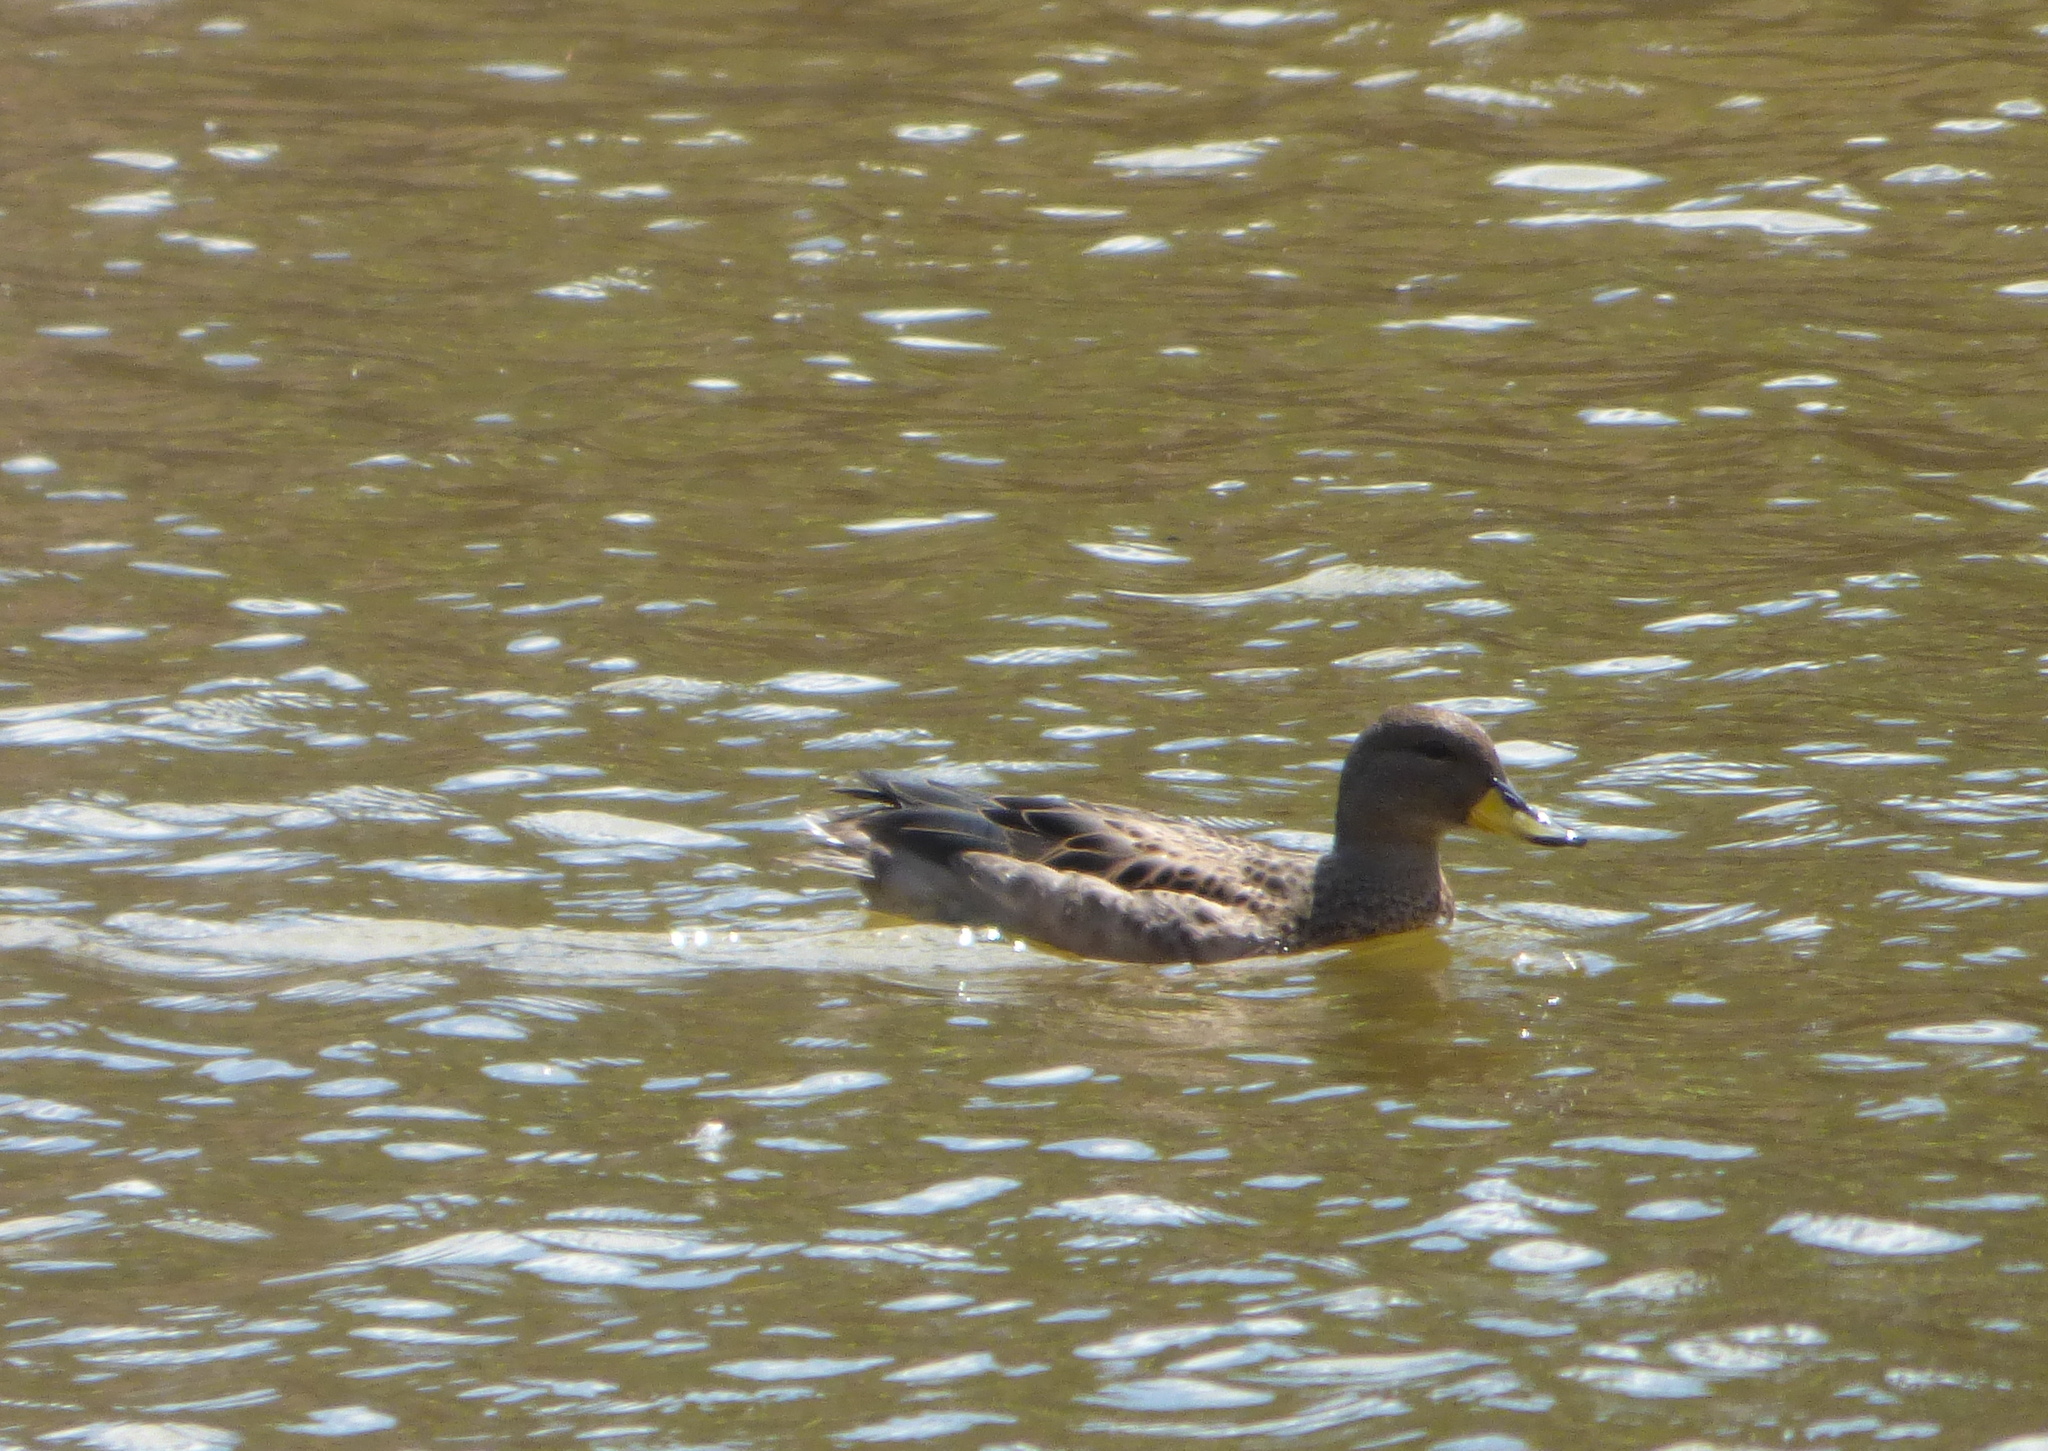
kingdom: Animalia
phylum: Chordata
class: Aves
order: Anseriformes
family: Anatidae
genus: Anas
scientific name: Anas flavirostris
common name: Yellow-billed teal
